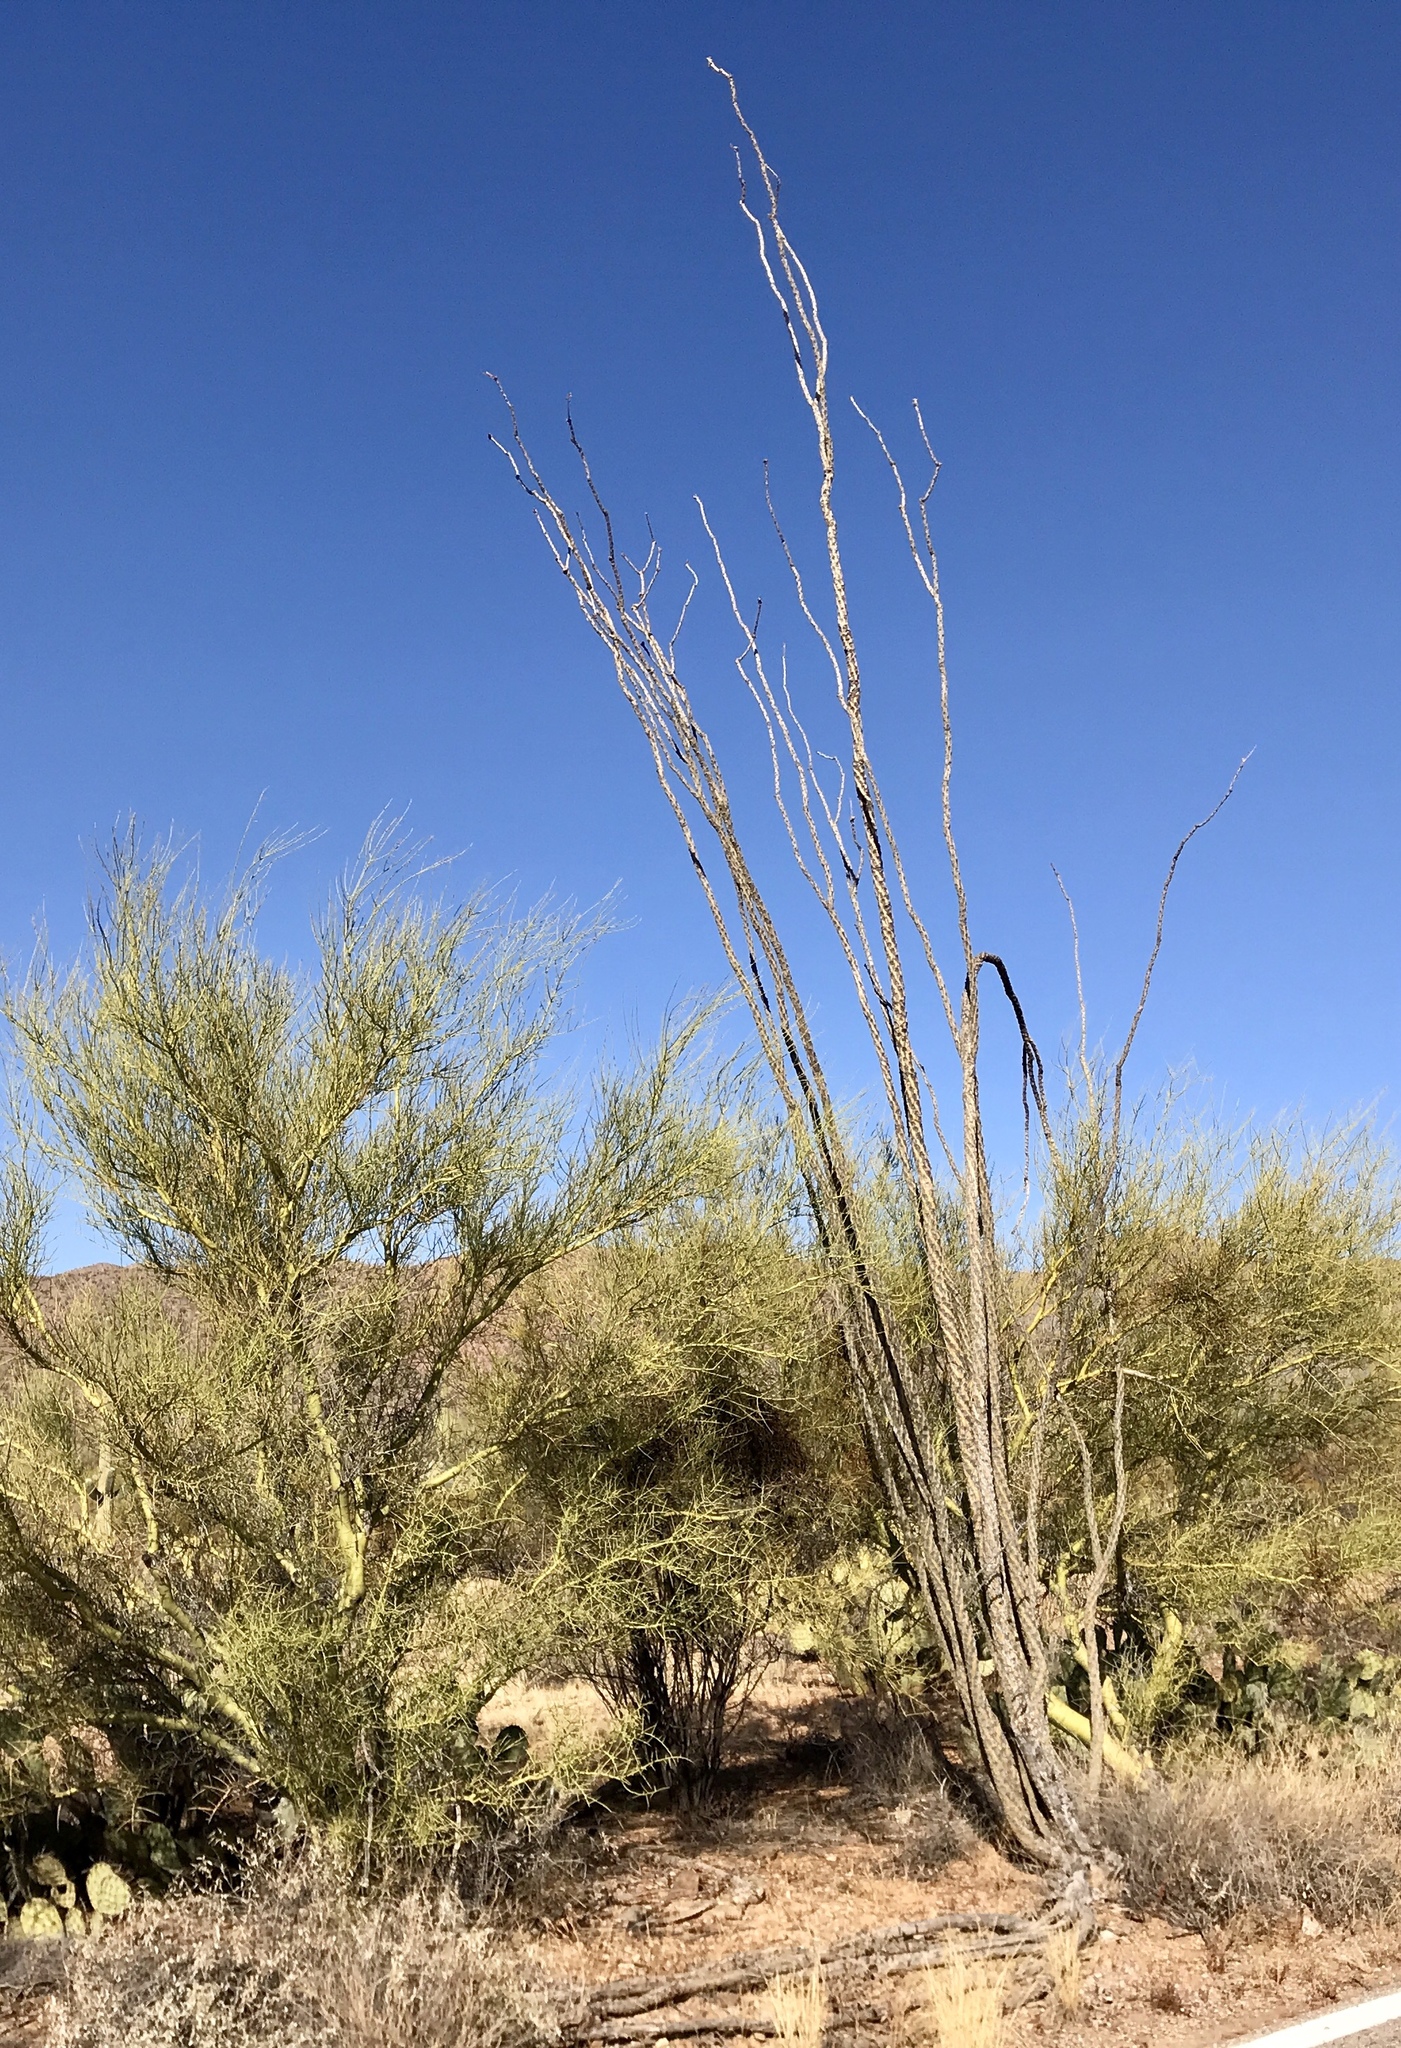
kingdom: Plantae
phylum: Tracheophyta
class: Magnoliopsida
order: Ericales
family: Fouquieriaceae
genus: Fouquieria
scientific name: Fouquieria splendens
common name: Vine-cactus
